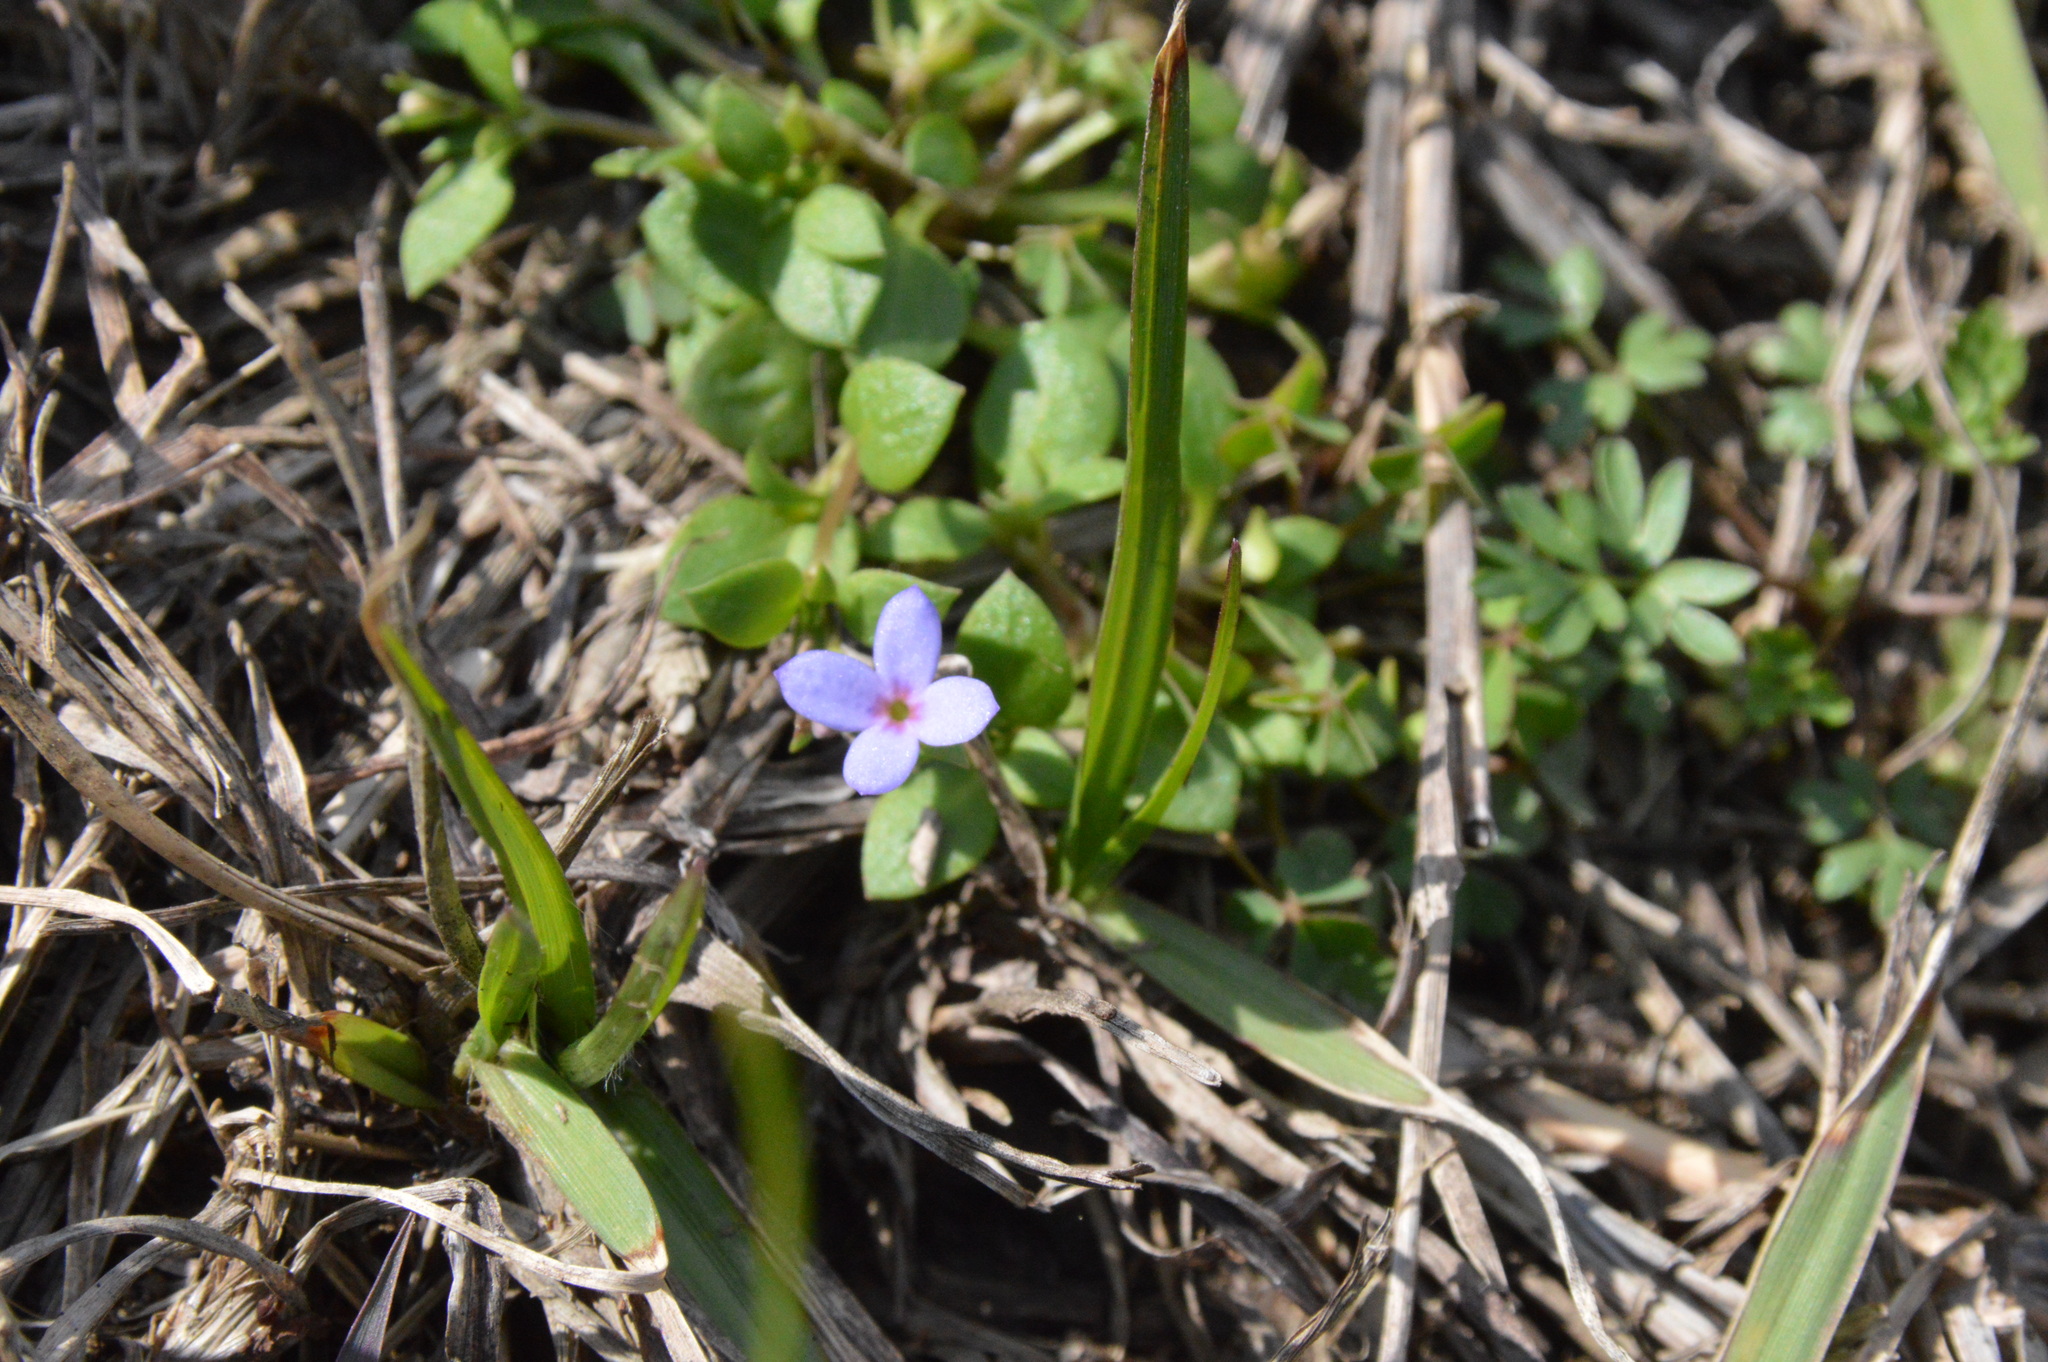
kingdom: Plantae
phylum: Tracheophyta
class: Magnoliopsida
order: Gentianales
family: Rubiaceae
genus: Houstonia
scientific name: Houstonia pusilla
